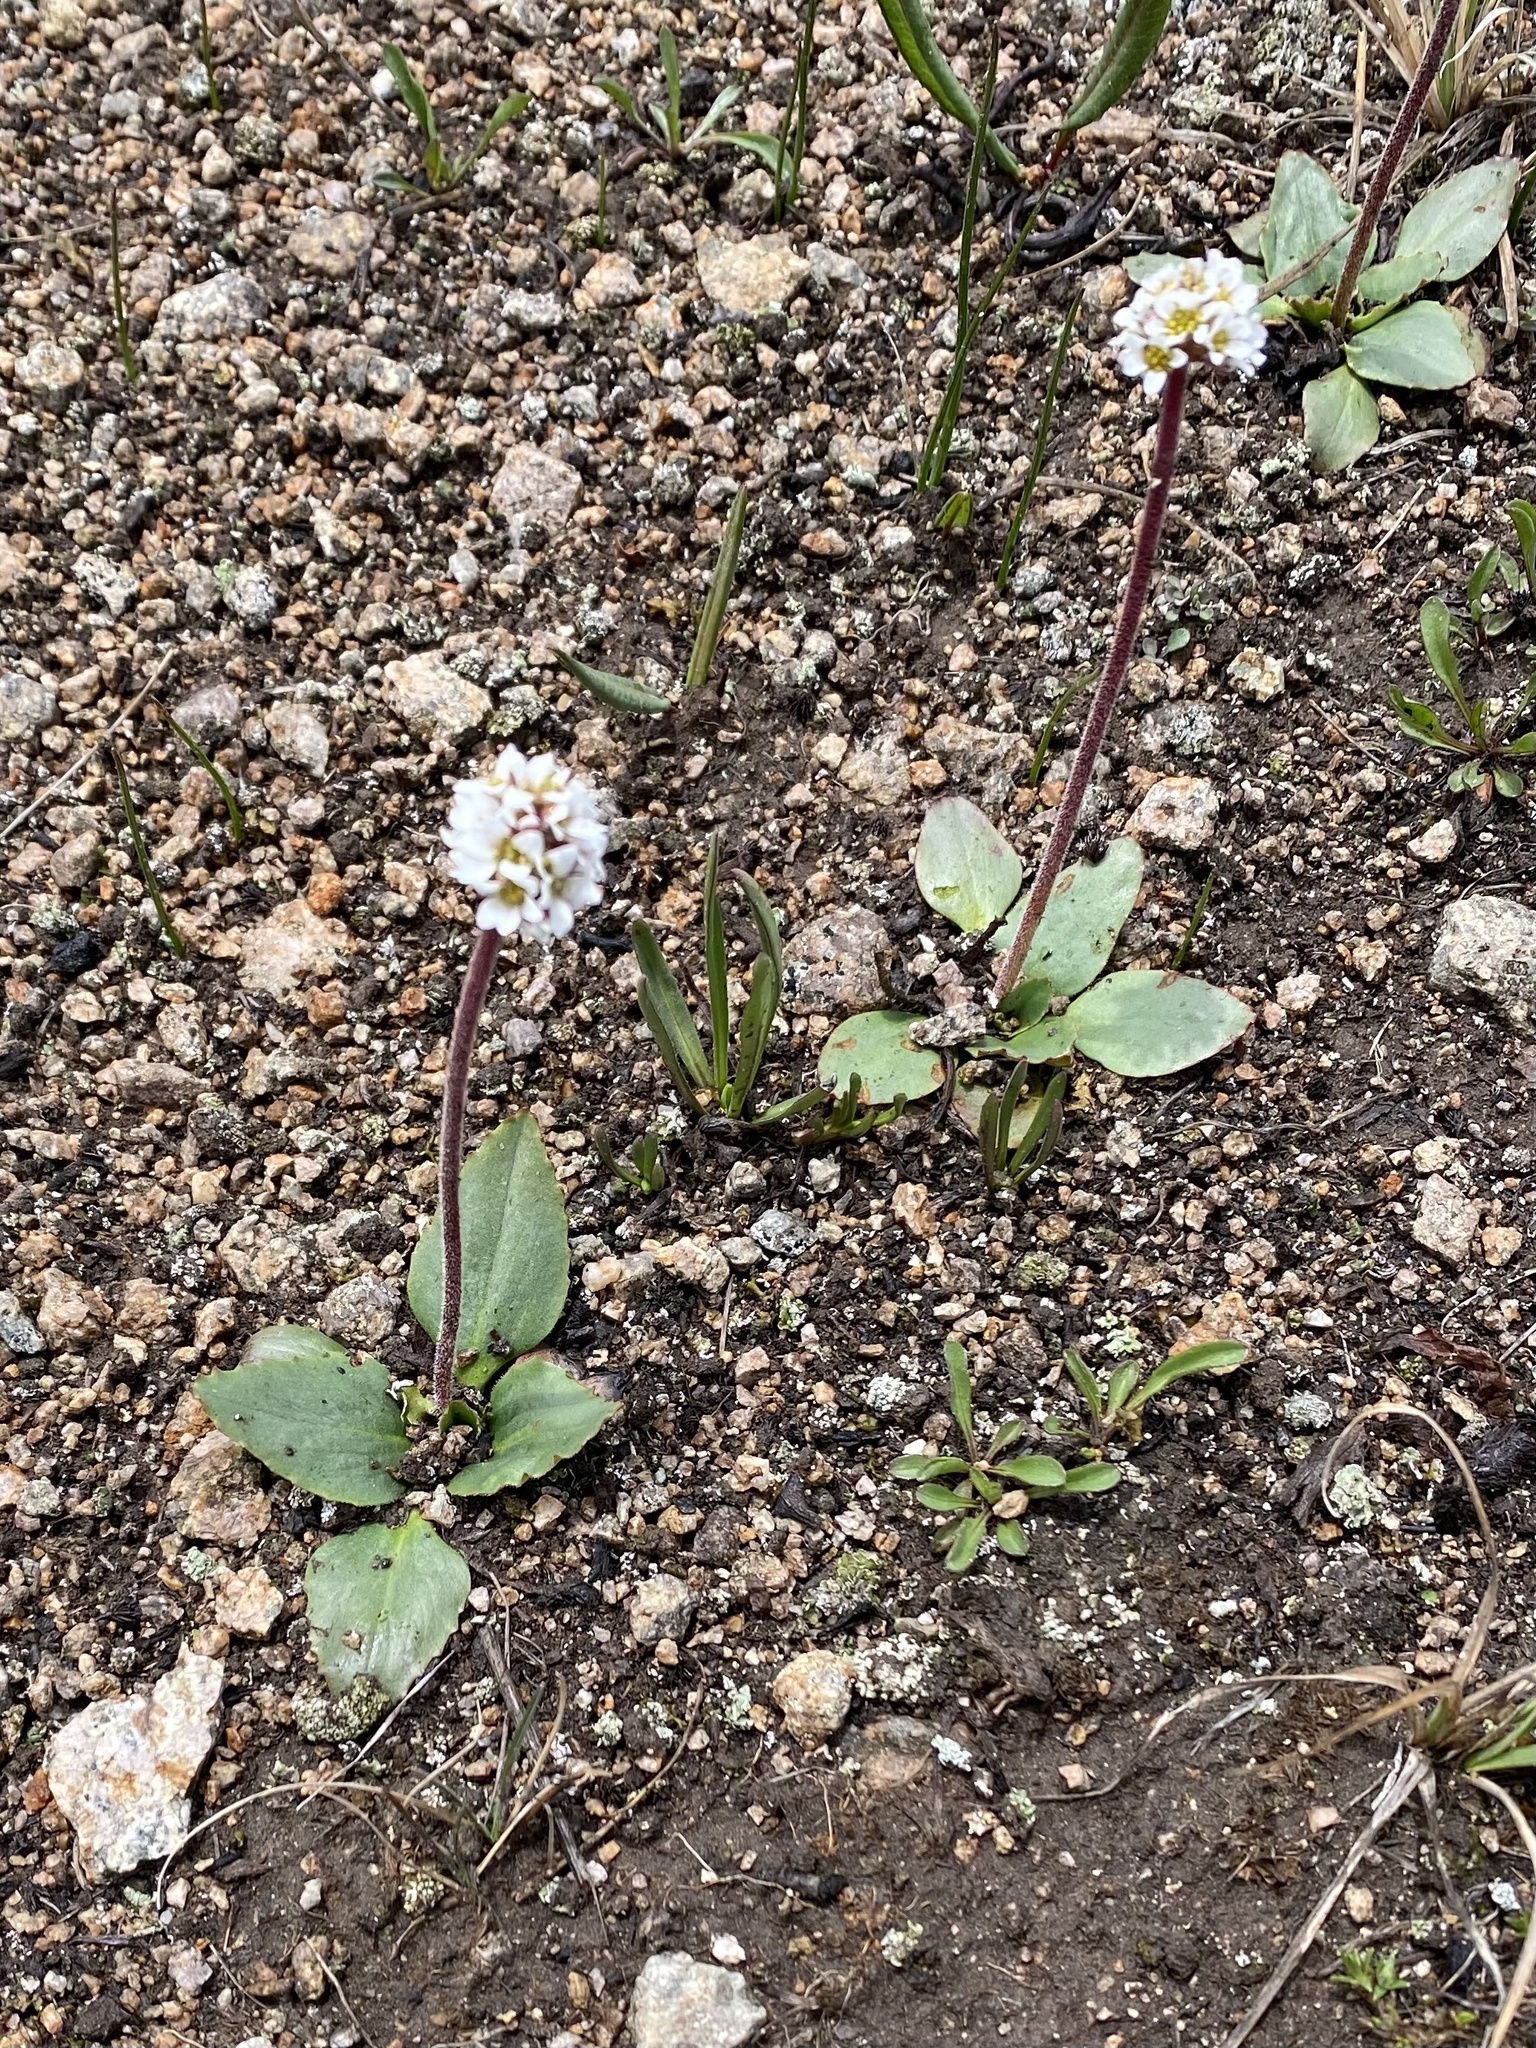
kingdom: Plantae
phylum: Tracheophyta
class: Magnoliopsida
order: Saxifragales
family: Saxifragaceae
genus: Micranthes
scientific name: Micranthes rhomboidea
